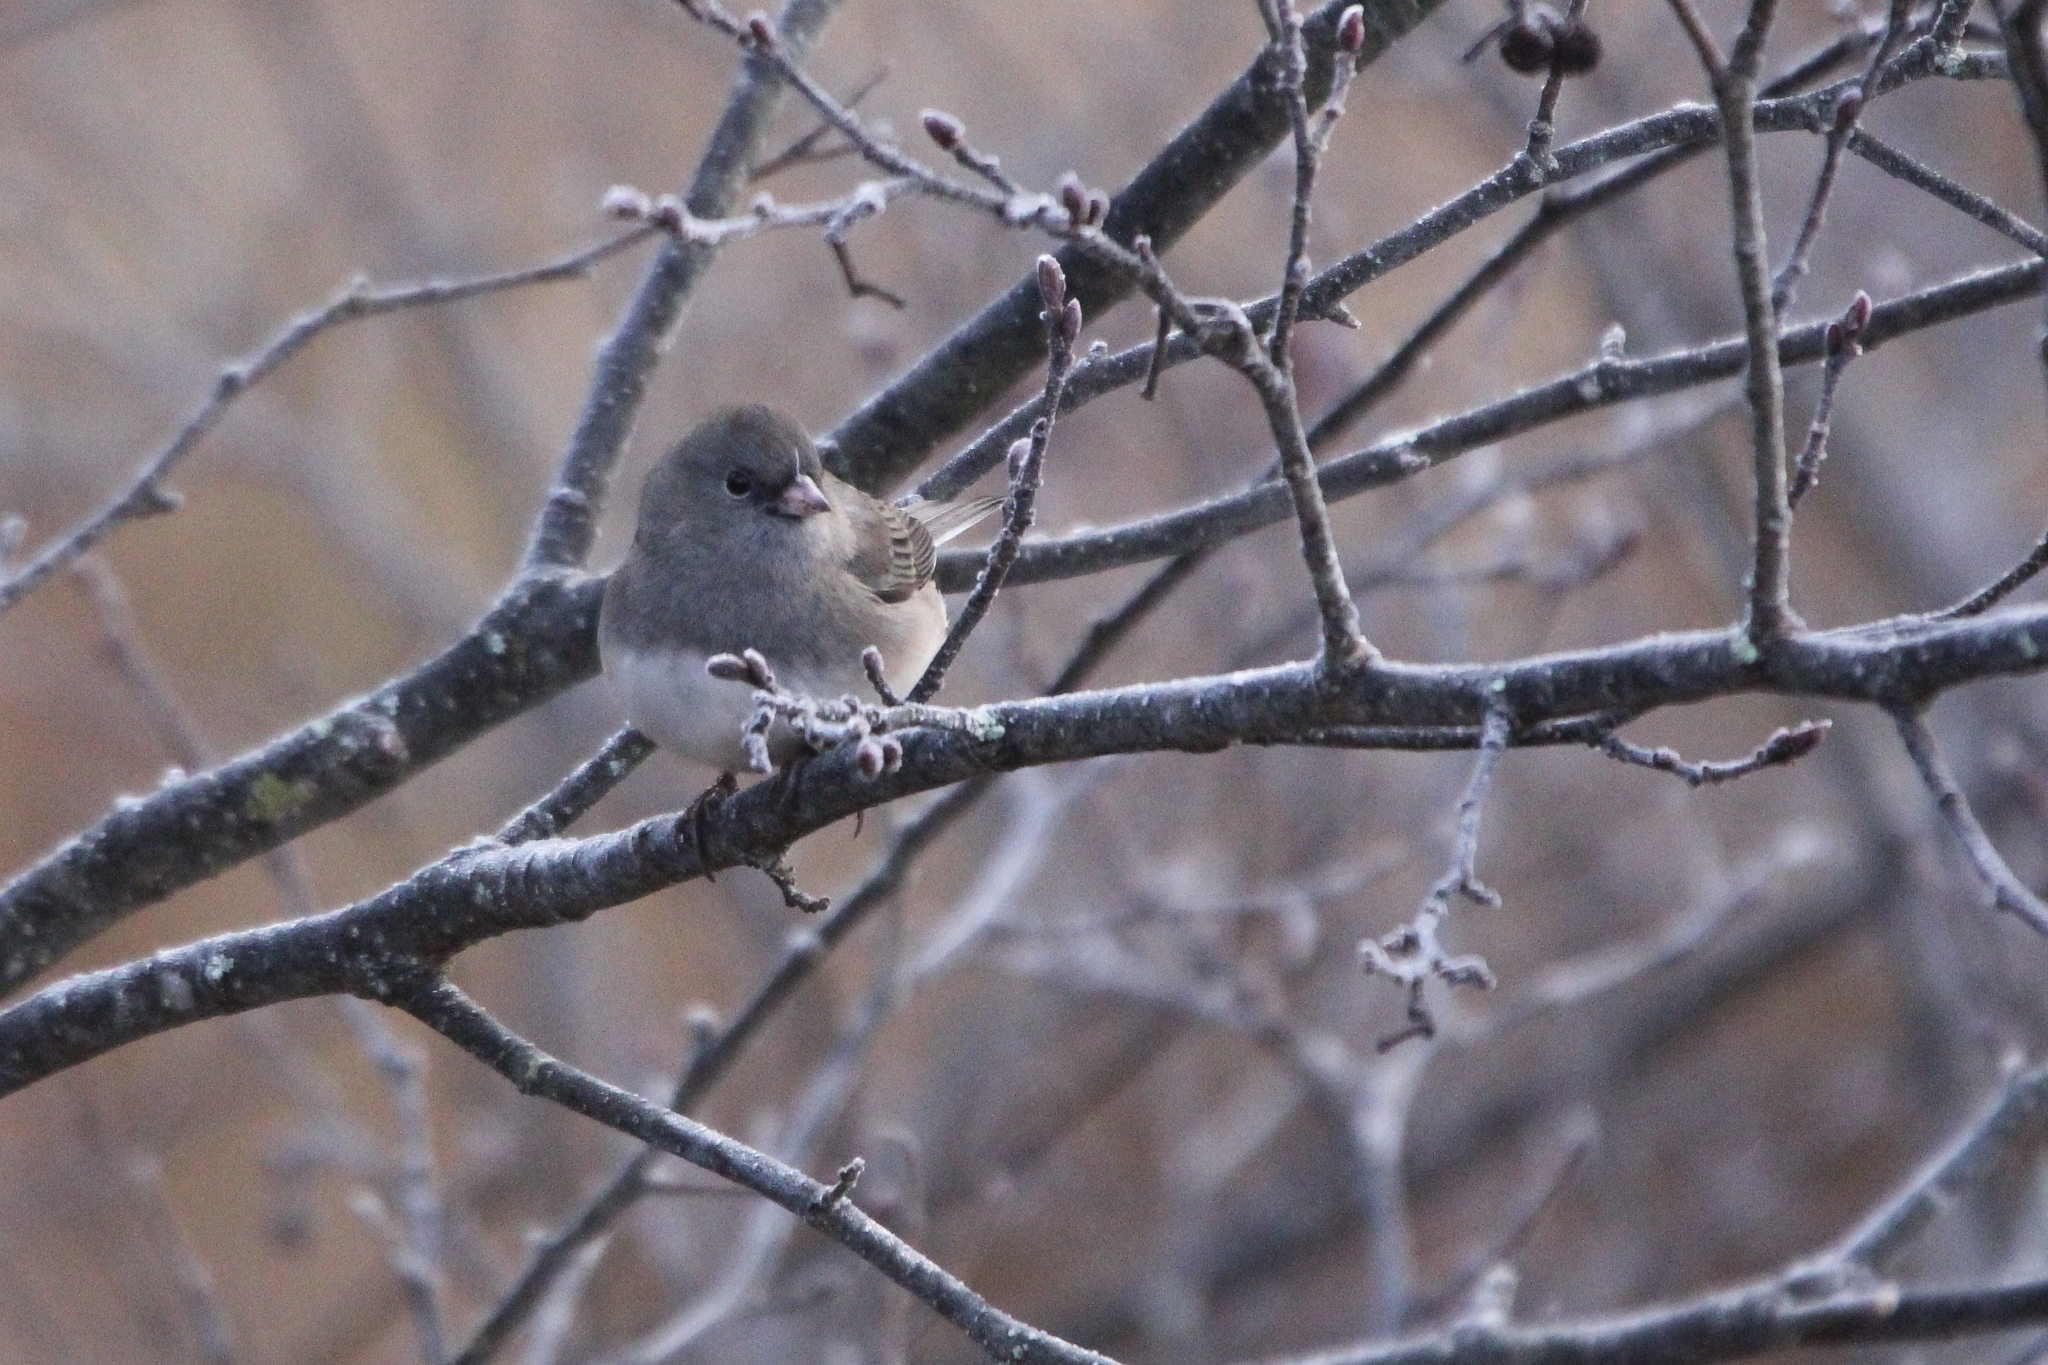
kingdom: Animalia
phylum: Chordata
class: Aves
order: Passeriformes
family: Passerellidae
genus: Junco
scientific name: Junco hyemalis
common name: Dark-eyed junco
